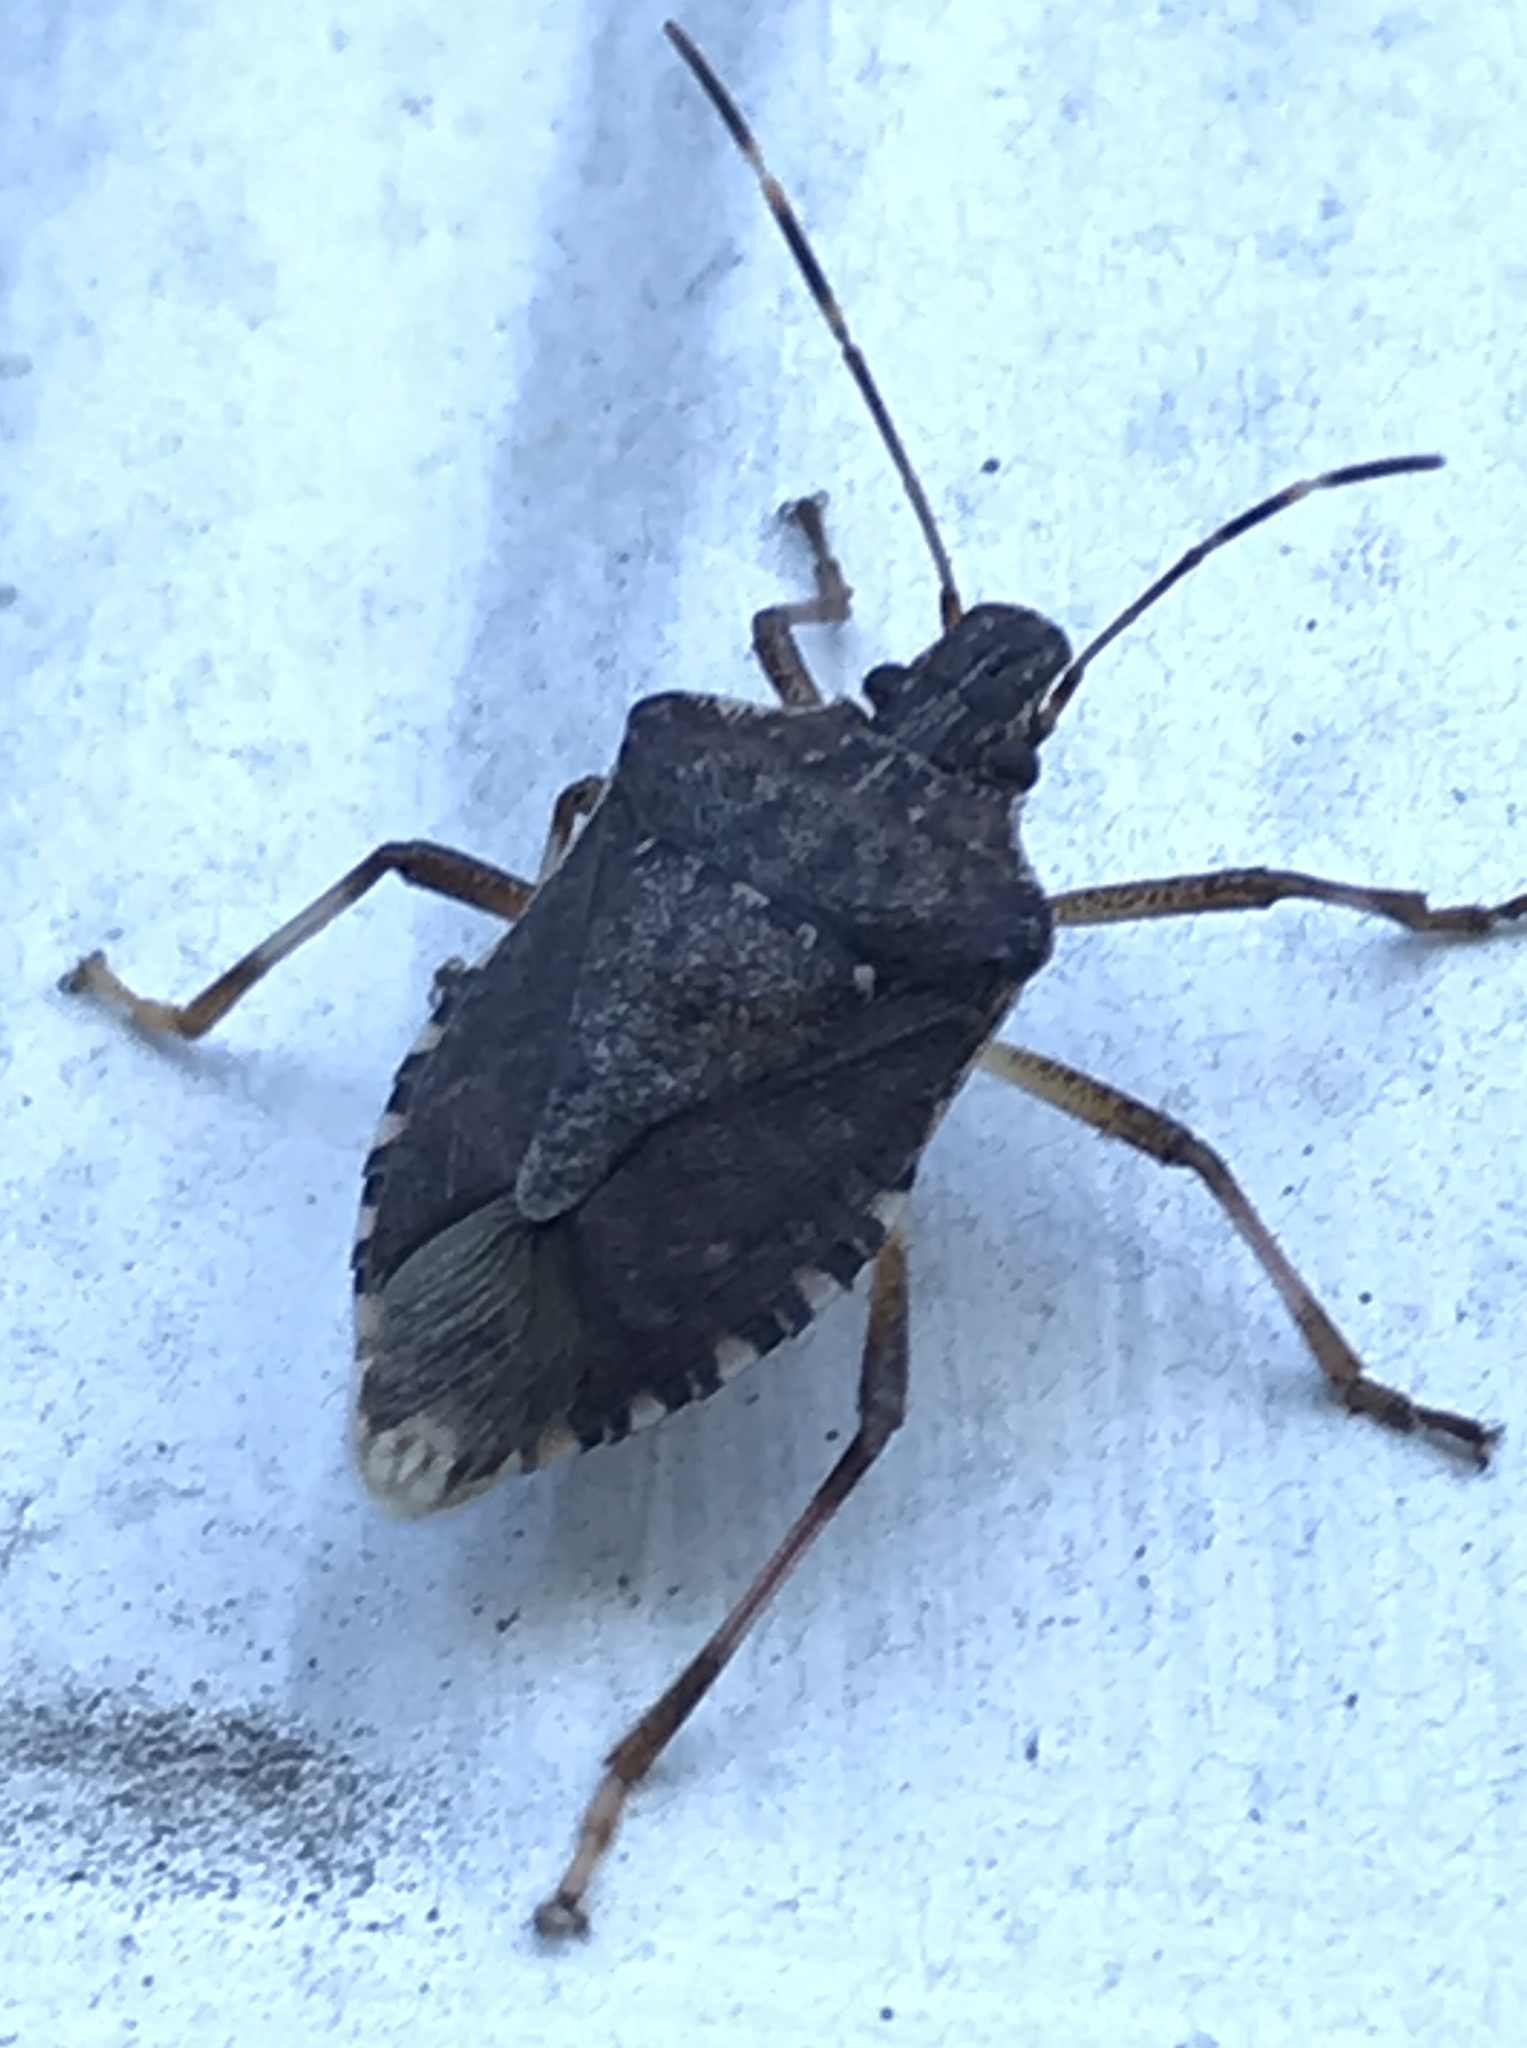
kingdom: Animalia
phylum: Arthropoda
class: Insecta
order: Hemiptera
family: Pentatomidae
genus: Halyomorpha
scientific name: Halyomorpha halys
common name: Brown marmorated stink bug
